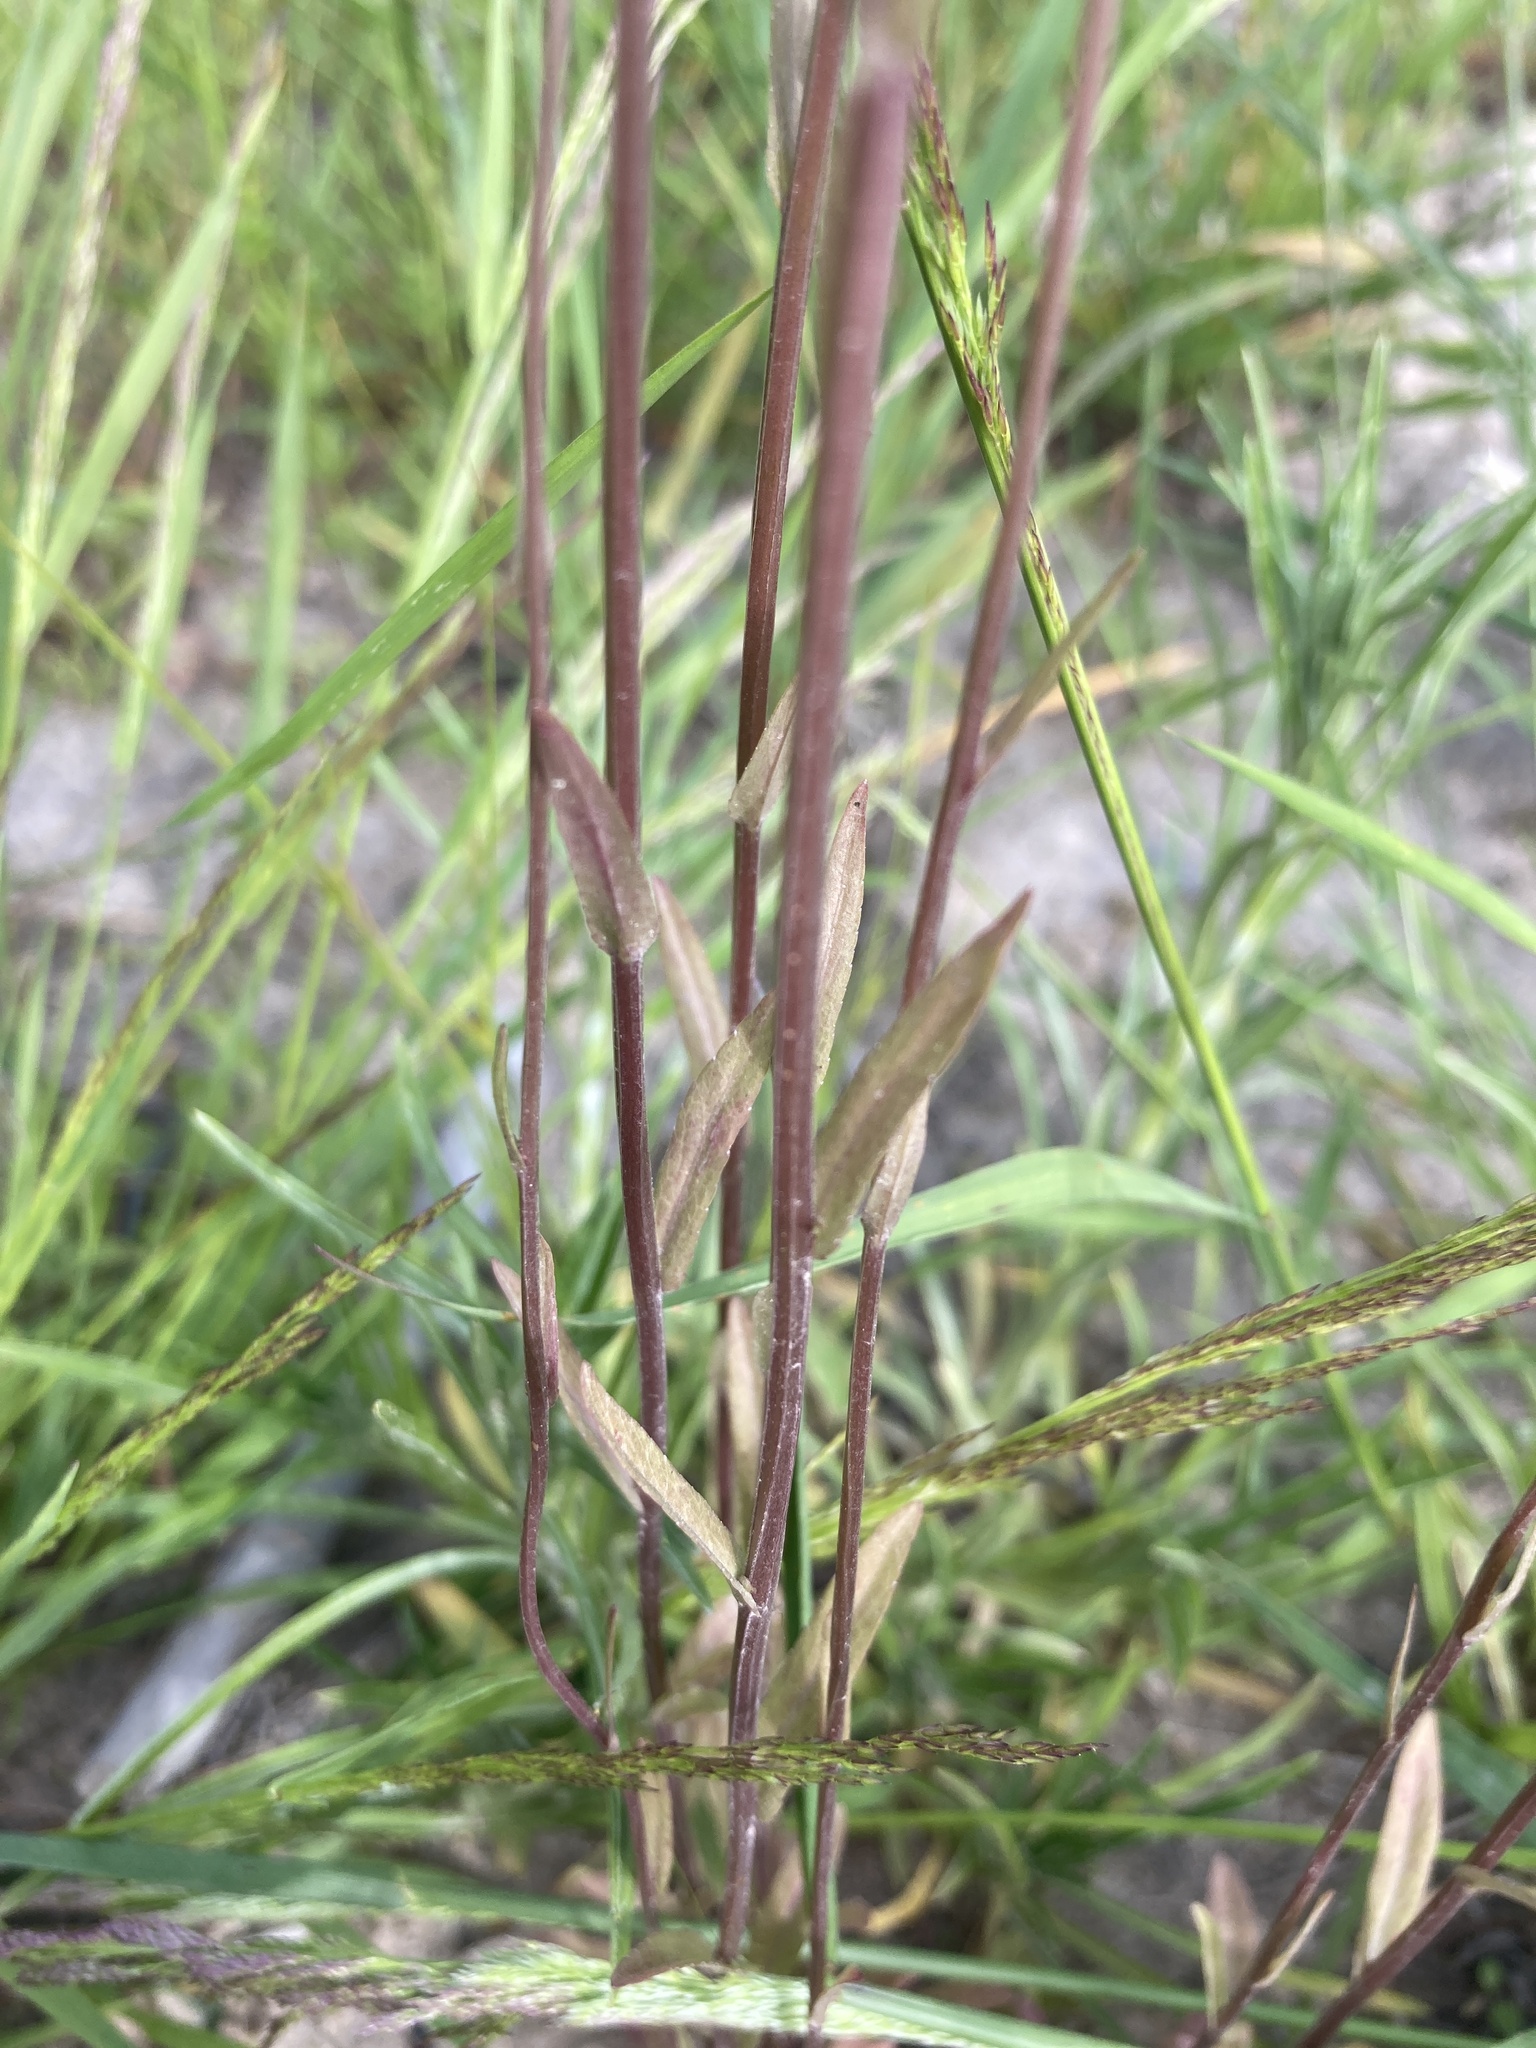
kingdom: Plantae
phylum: Tracheophyta
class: Magnoliopsida
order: Asterales
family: Campanulaceae
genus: Campanula
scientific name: Campanula patula
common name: Spreading bellflower
